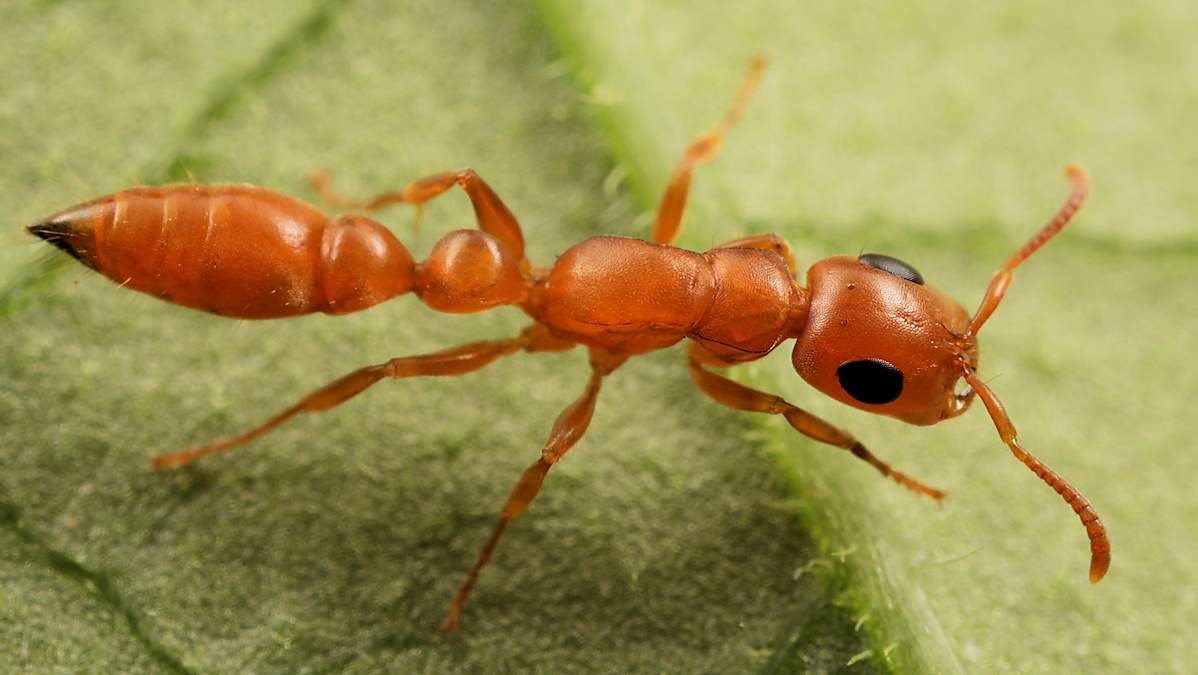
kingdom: Animalia
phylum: Arthropoda
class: Insecta
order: Hymenoptera
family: Formicidae
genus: Tetraponera
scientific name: Tetraponera natalensis
